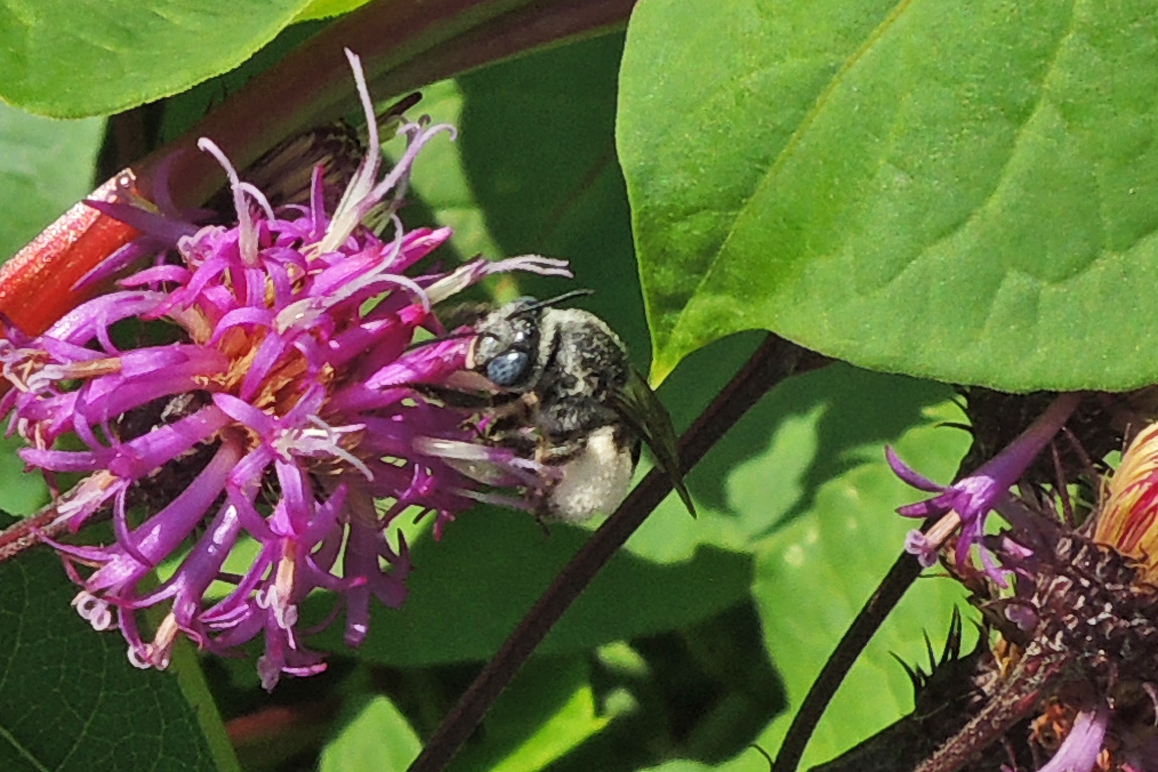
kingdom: Animalia
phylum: Arthropoda
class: Insecta
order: Hymenoptera
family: Apidae
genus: Melissodes
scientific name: Melissodes denticulatus
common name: Denticulate long-horned bee
